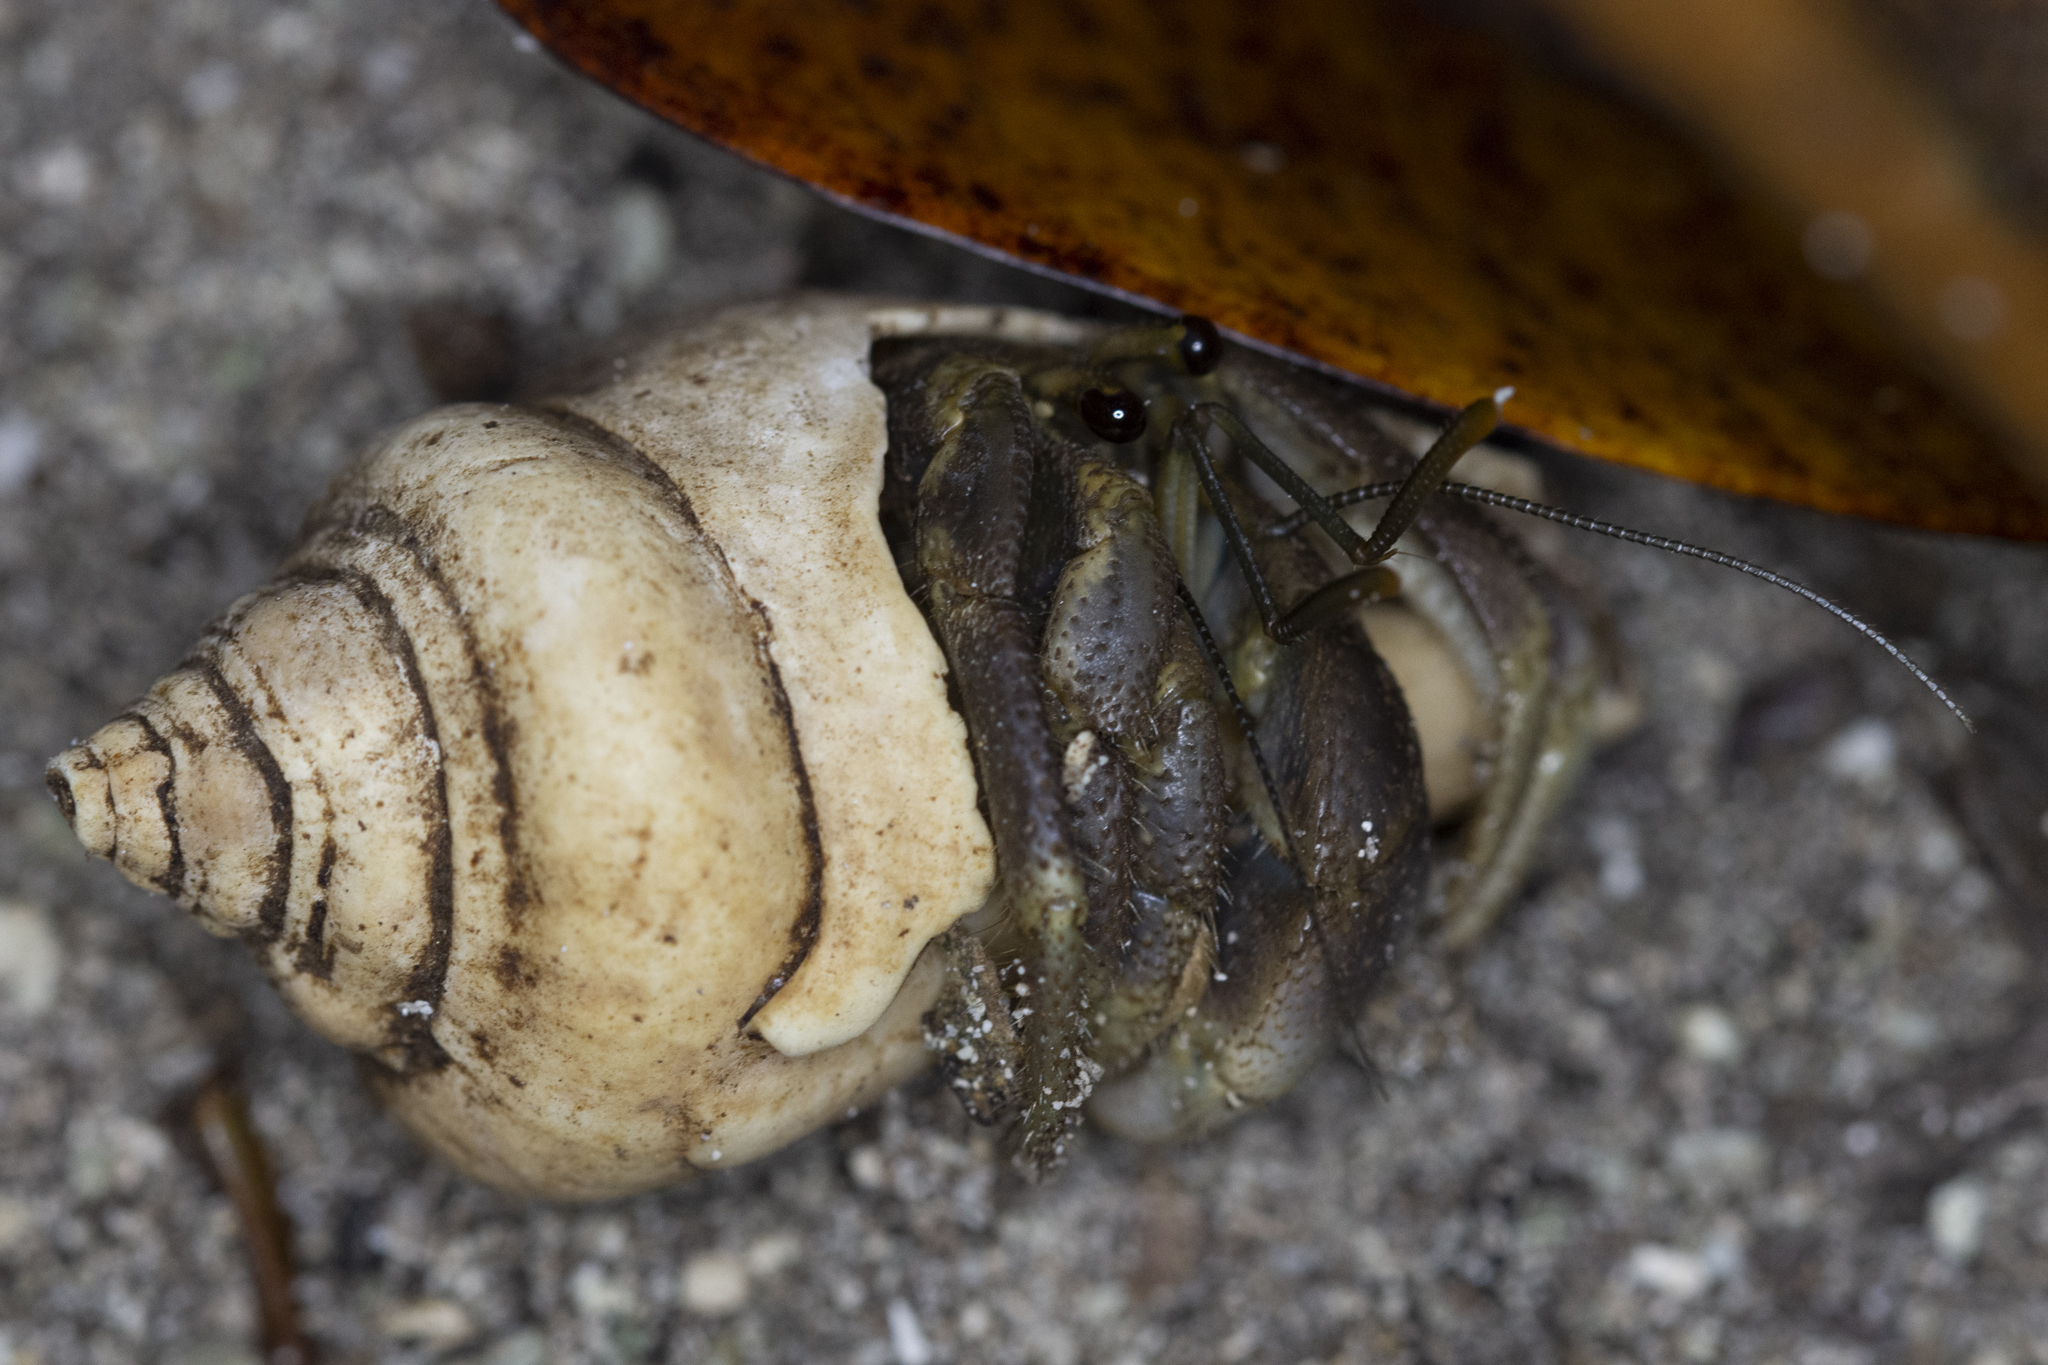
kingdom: Animalia
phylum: Arthropoda
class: Malacostraca
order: Decapoda
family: Coenobitidae
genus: Coenobita
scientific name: Coenobita brevimanus
